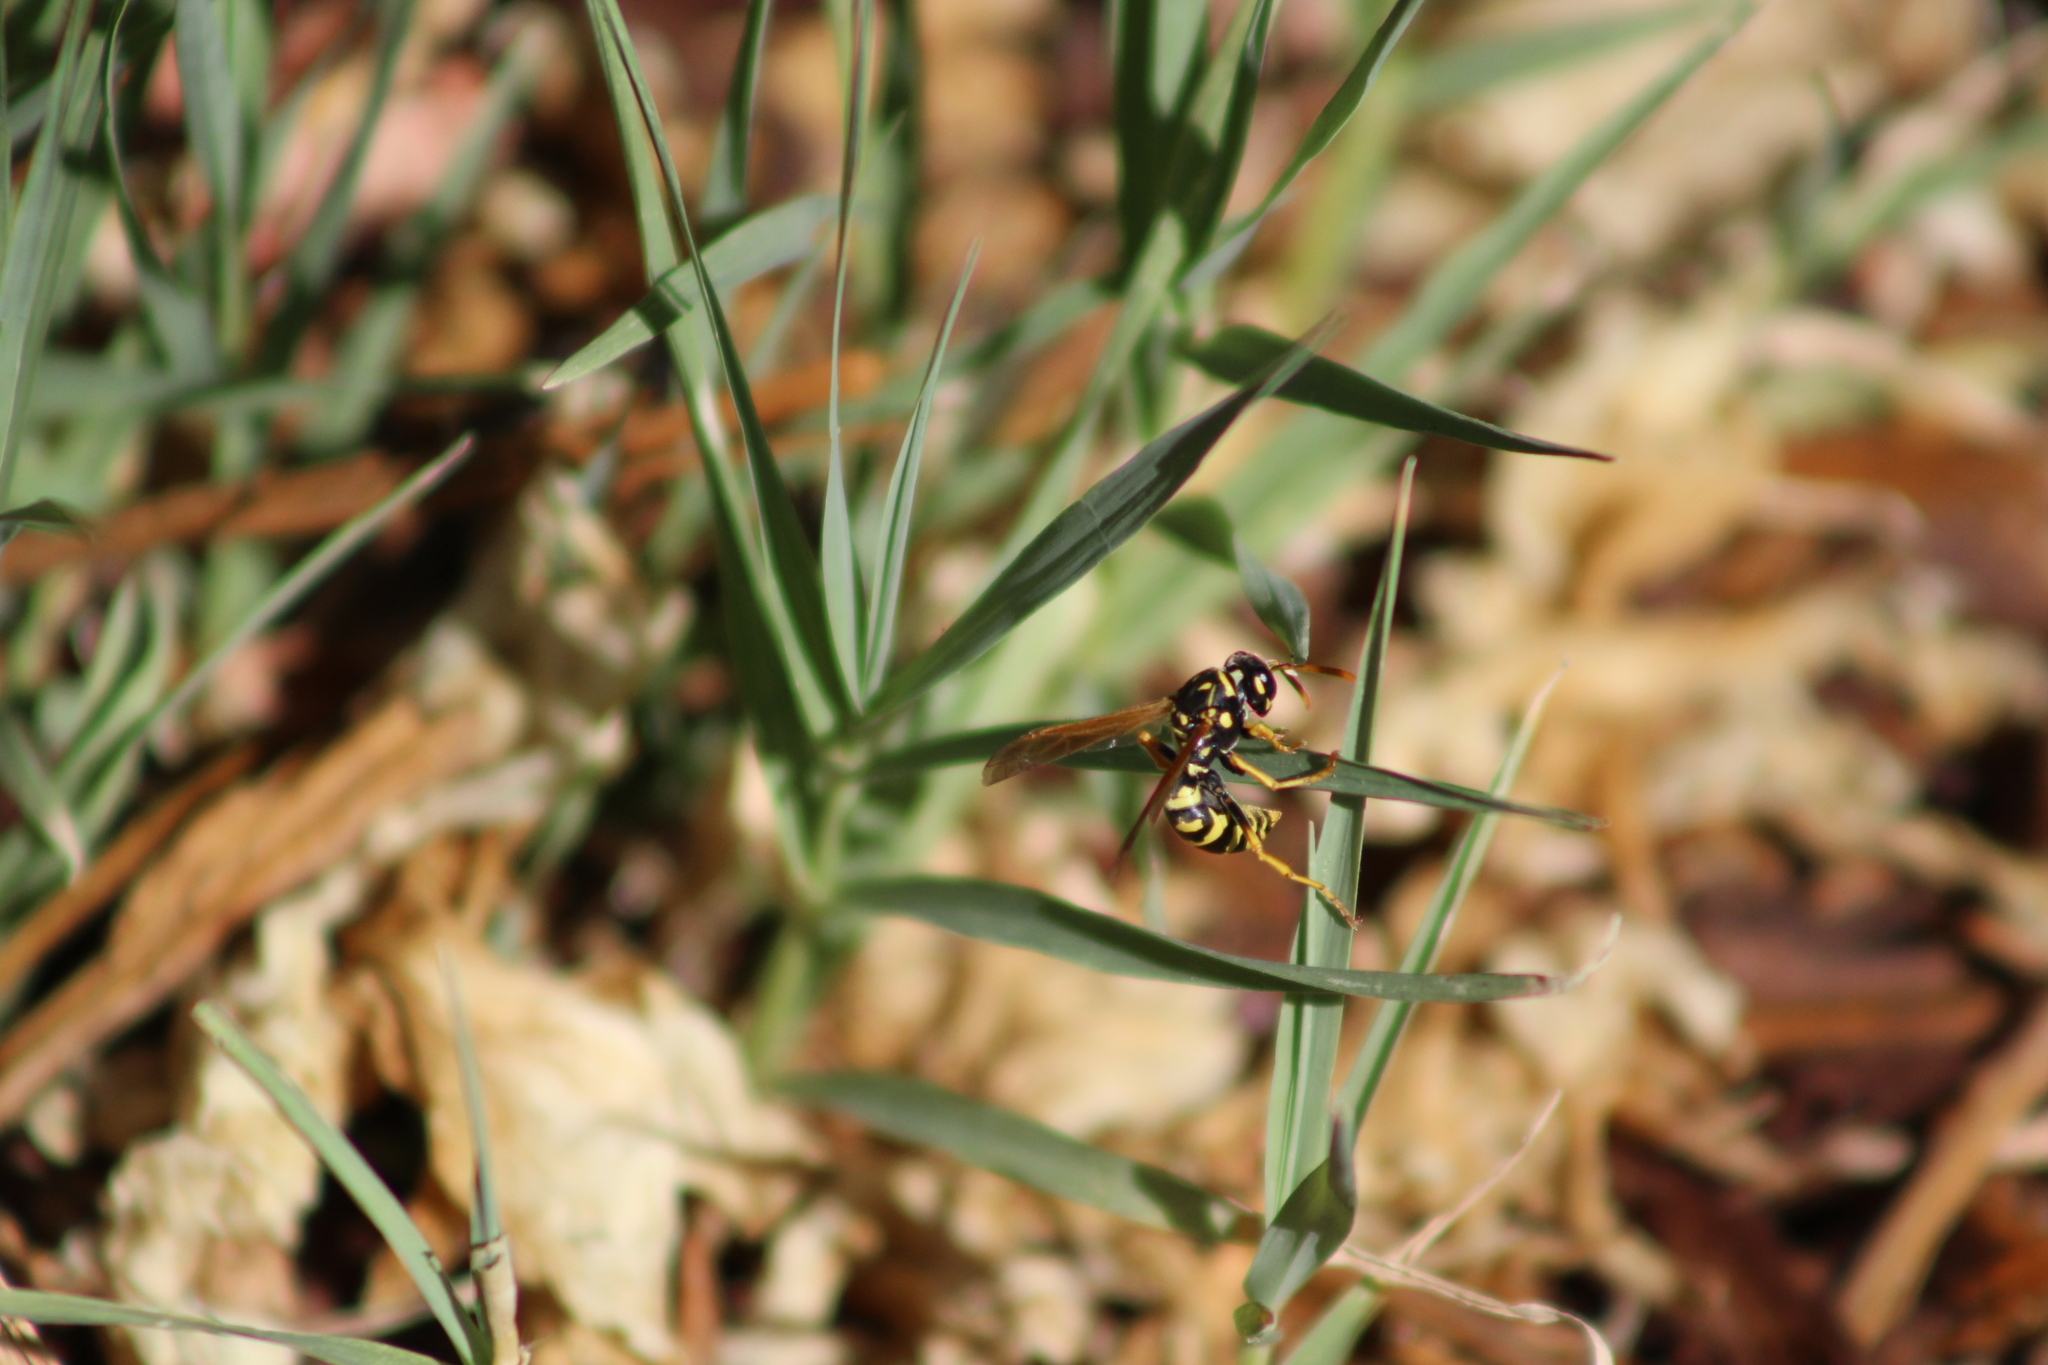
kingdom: Animalia
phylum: Arthropoda
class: Insecta
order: Hymenoptera
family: Eumenidae
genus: Polistes
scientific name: Polistes dominula
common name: Paper wasp
